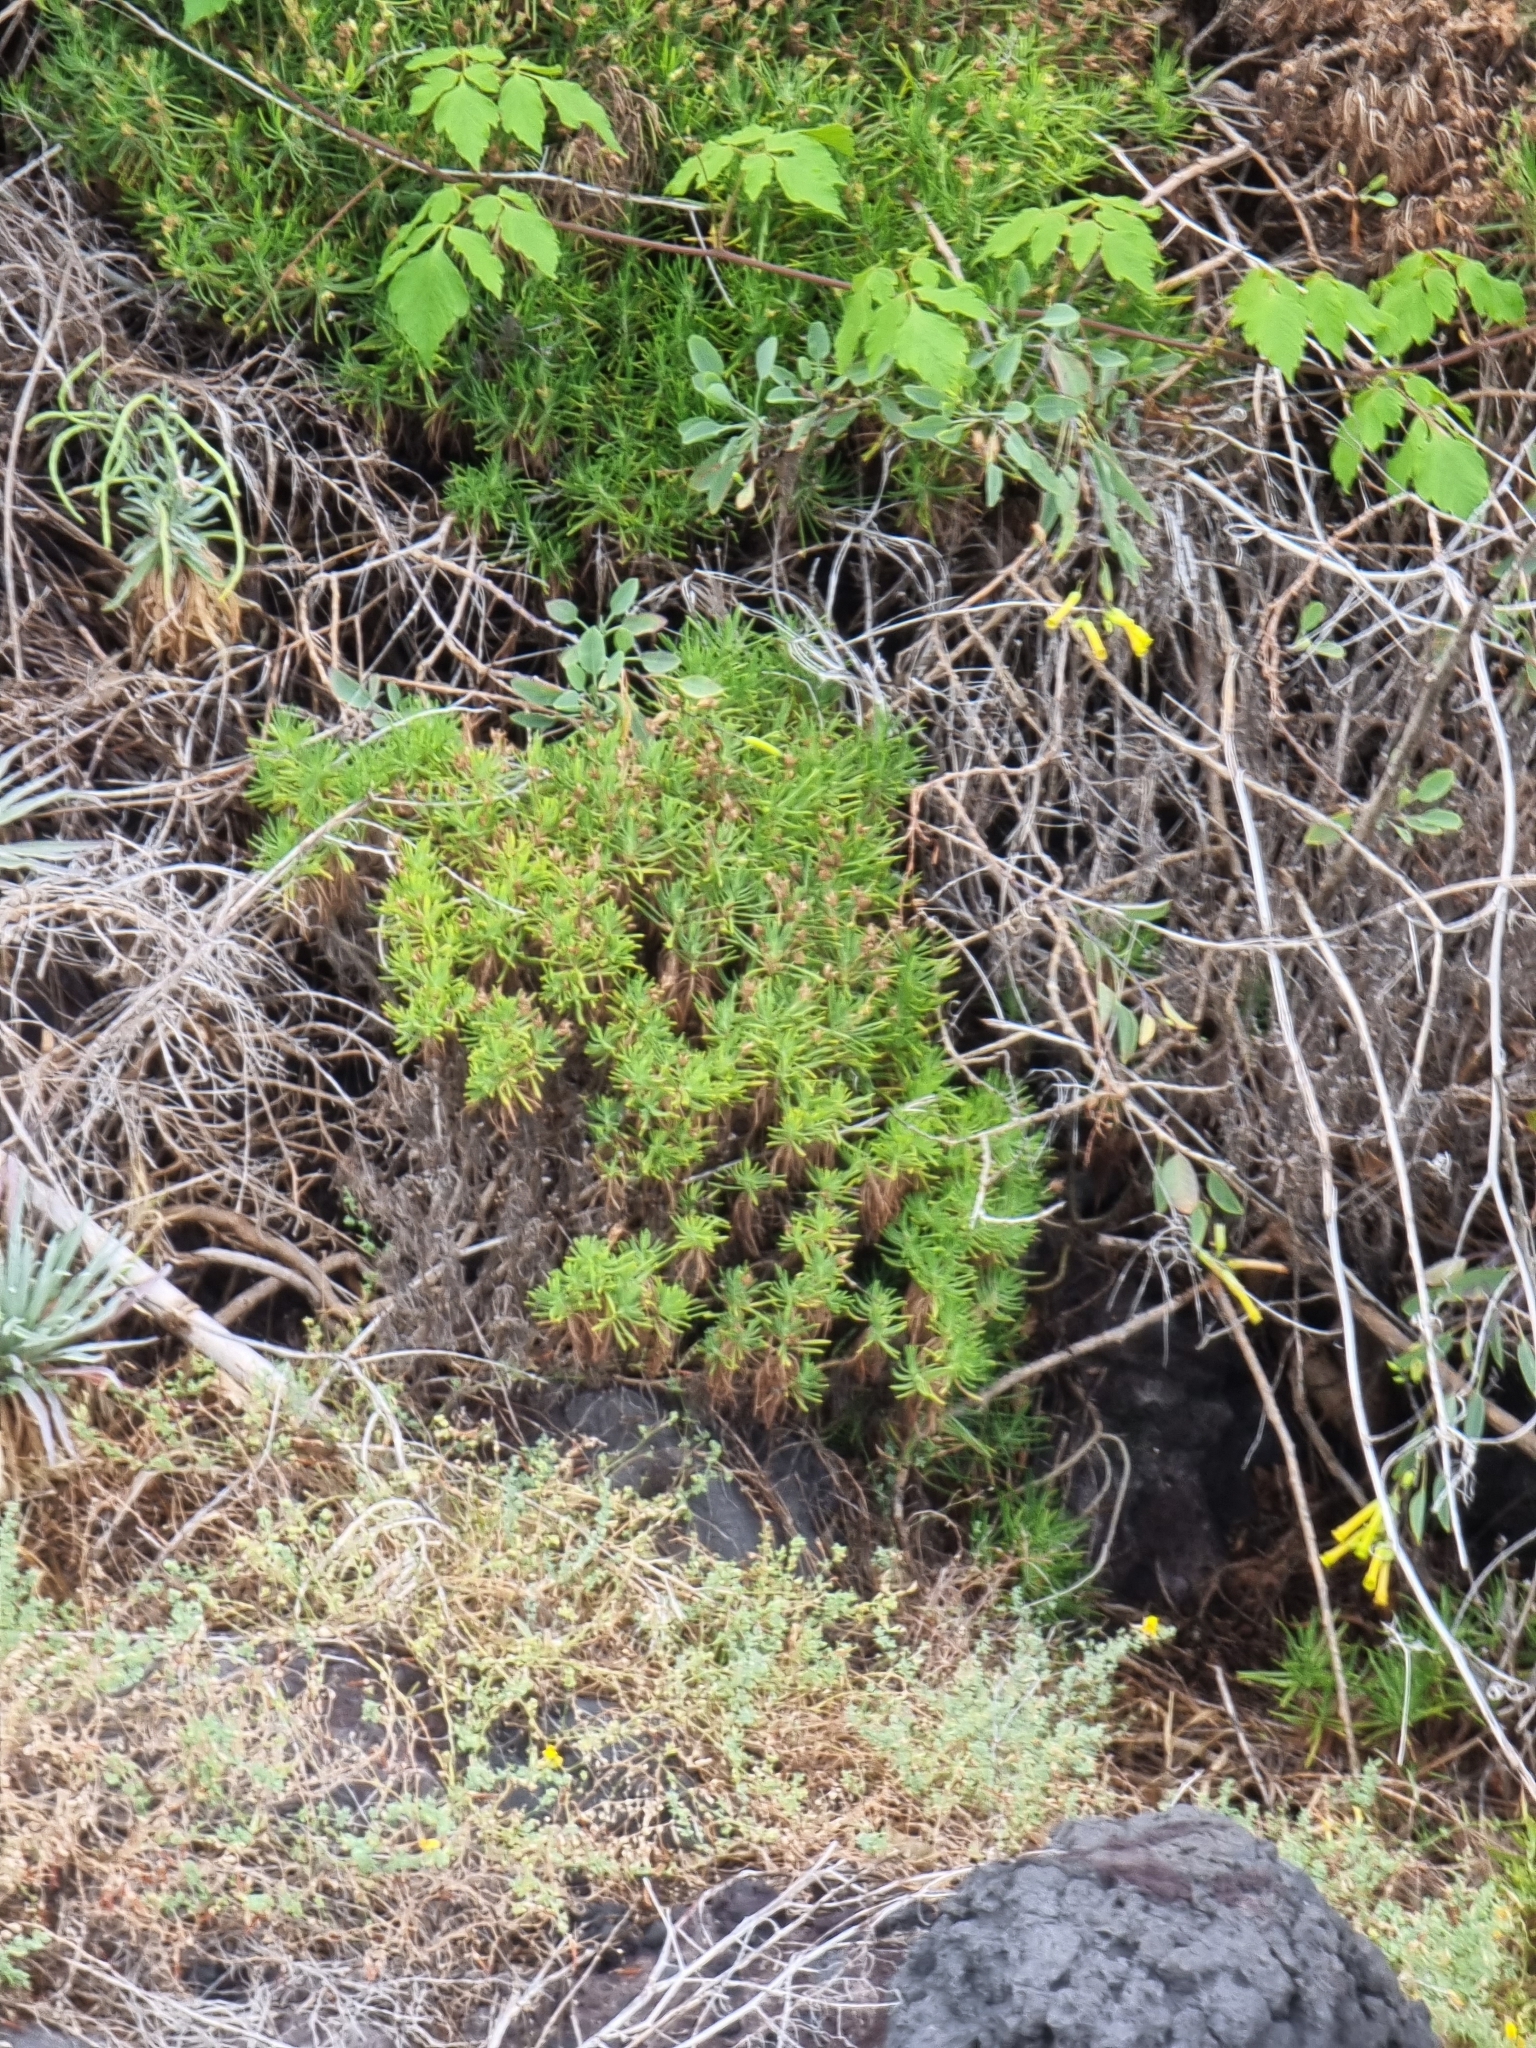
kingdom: Plantae
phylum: Tracheophyta
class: Magnoliopsida
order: Lamiales
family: Plantaginaceae
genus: Plantago
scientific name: Plantago arborescens
